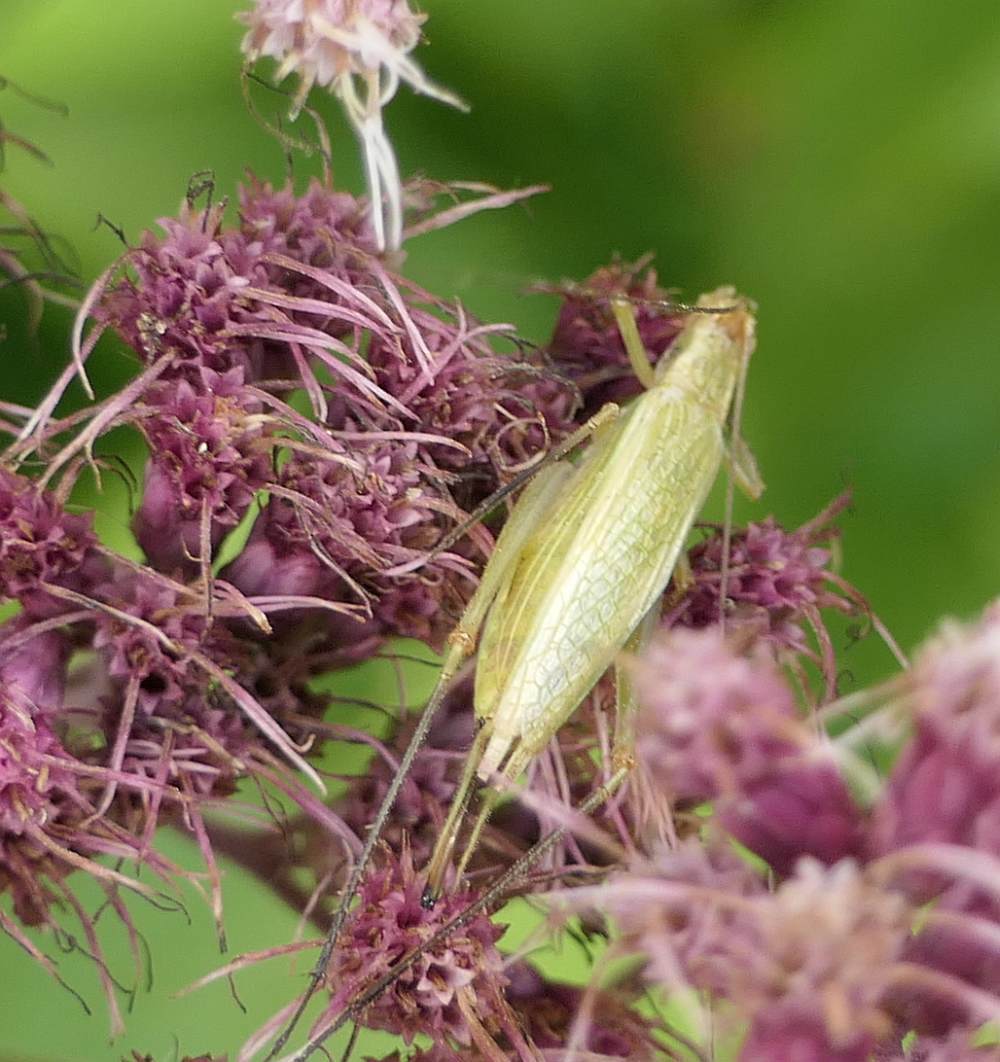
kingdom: Animalia
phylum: Arthropoda
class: Insecta
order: Orthoptera
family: Gryllidae
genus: Oecanthus
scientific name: Oecanthus nigricornis
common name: Black-horned tree cricket
